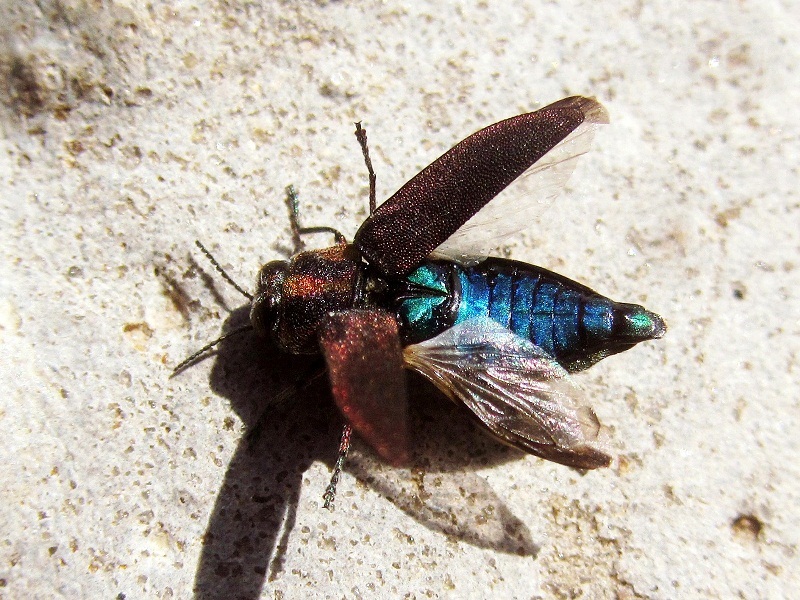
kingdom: Animalia
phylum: Arthropoda
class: Insecta
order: Coleoptera
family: Buprestidae
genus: Anthaxia
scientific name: Anthaxia manca
